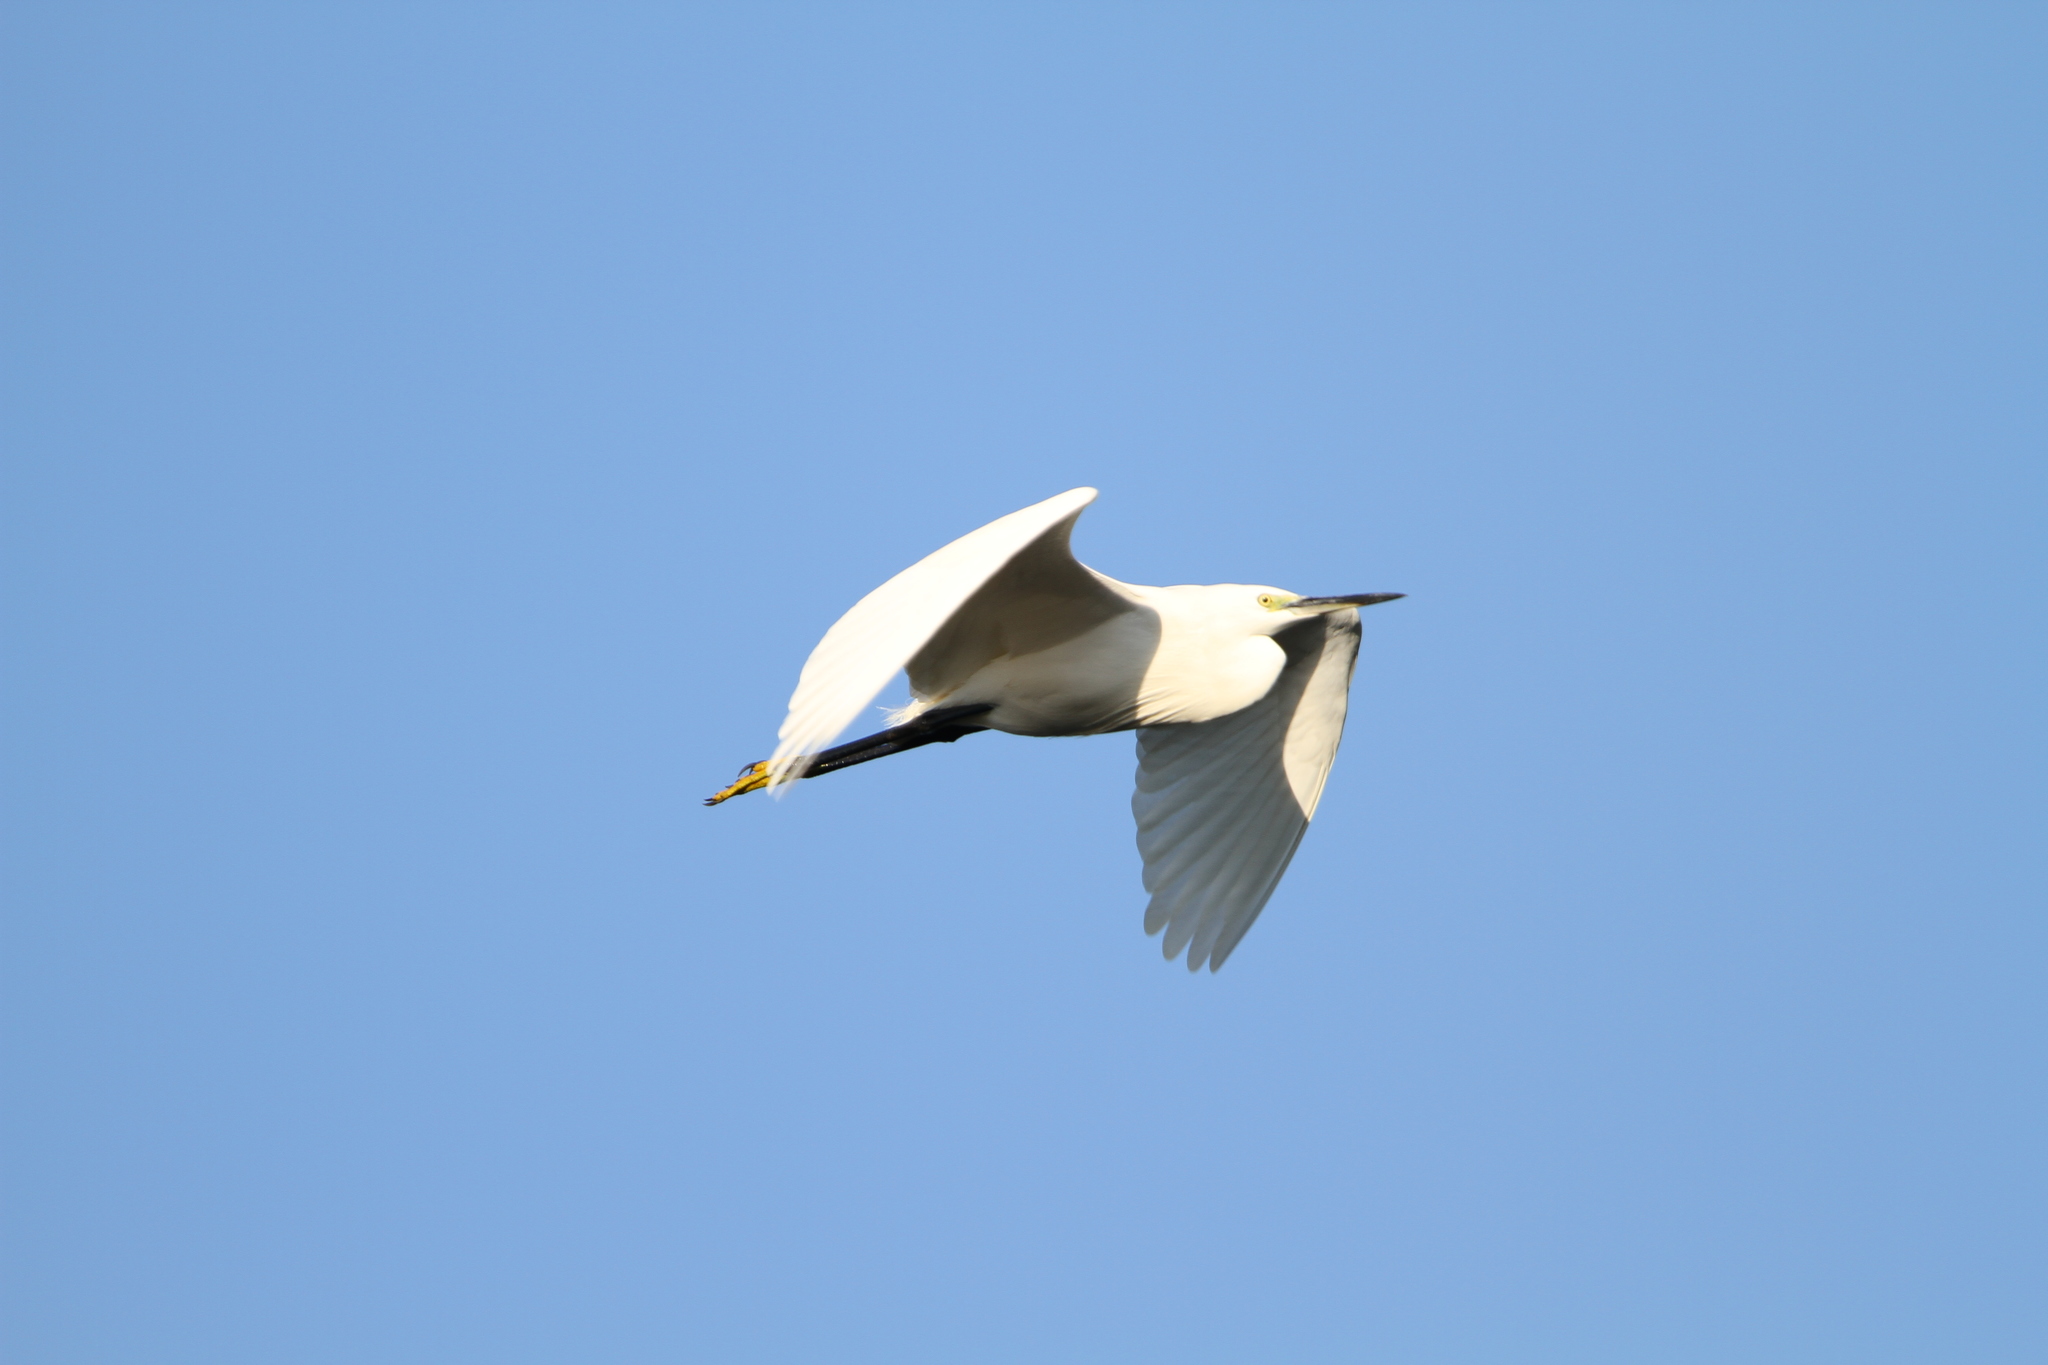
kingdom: Animalia
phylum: Chordata
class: Aves
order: Pelecaniformes
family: Ardeidae
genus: Egretta
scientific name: Egretta garzetta
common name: Little egret
